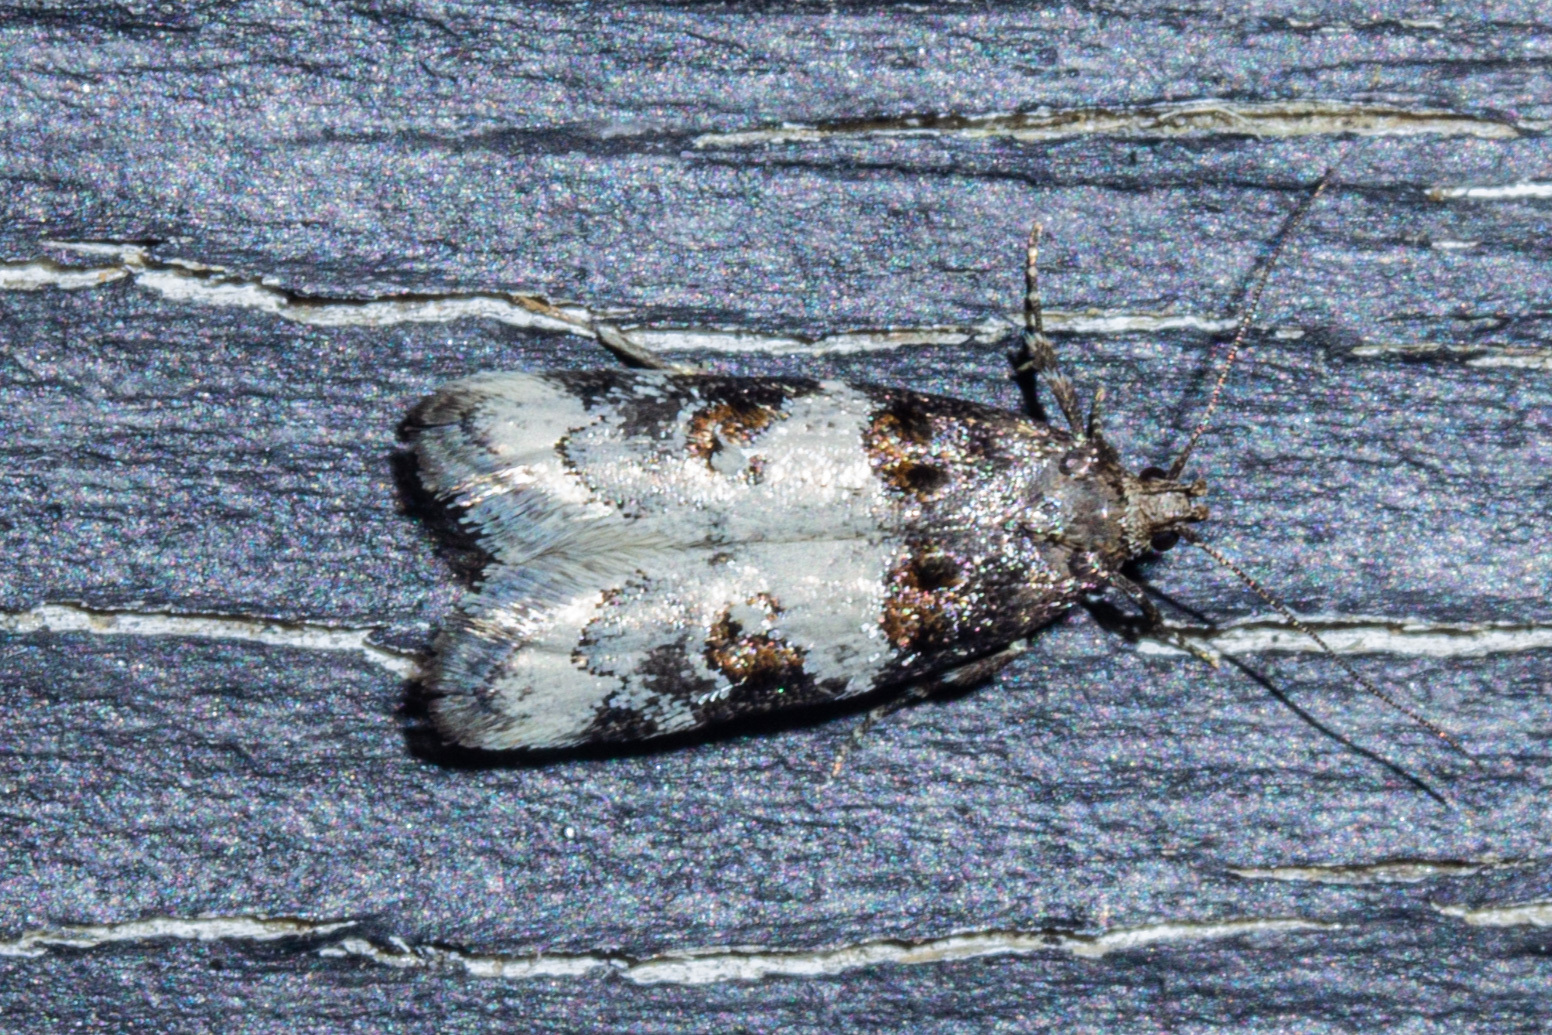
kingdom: Animalia
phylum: Arthropoda
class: Insecta
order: Lepidoptera
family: Oecophoridae
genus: Trachypepla
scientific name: Trachypepla contritella
